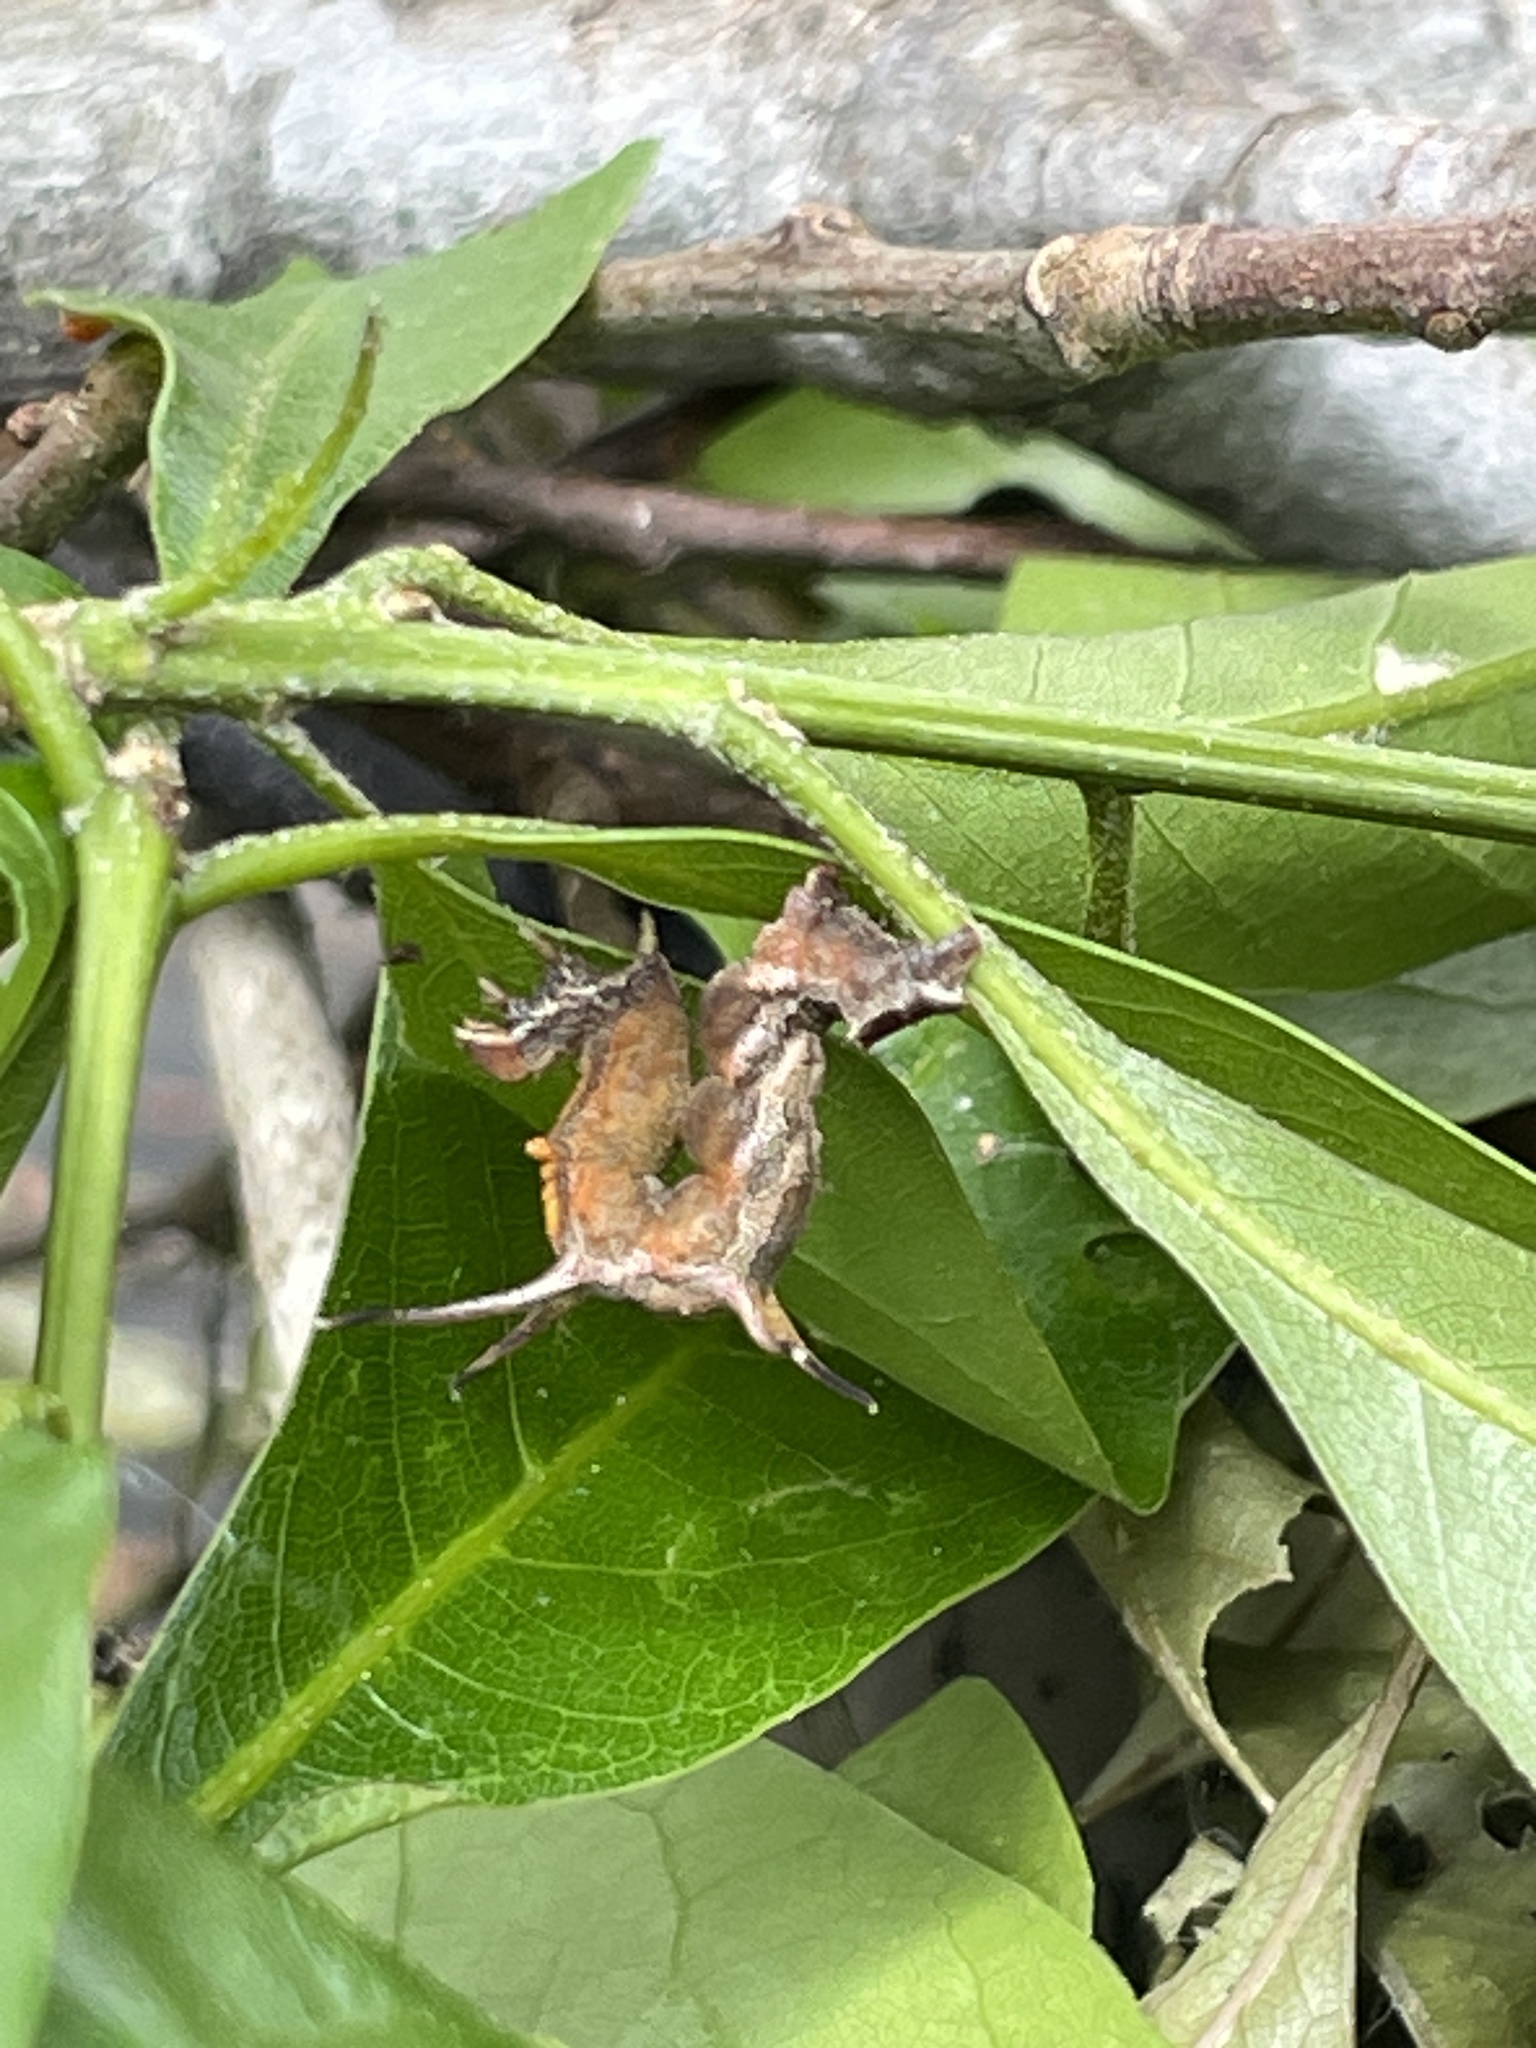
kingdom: Animalia
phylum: Arthropoda
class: Insecta
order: Lepidoptera
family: Geometridae
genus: Nematocampa
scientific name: Nematocampa resistaria
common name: Horned spanworm moth
